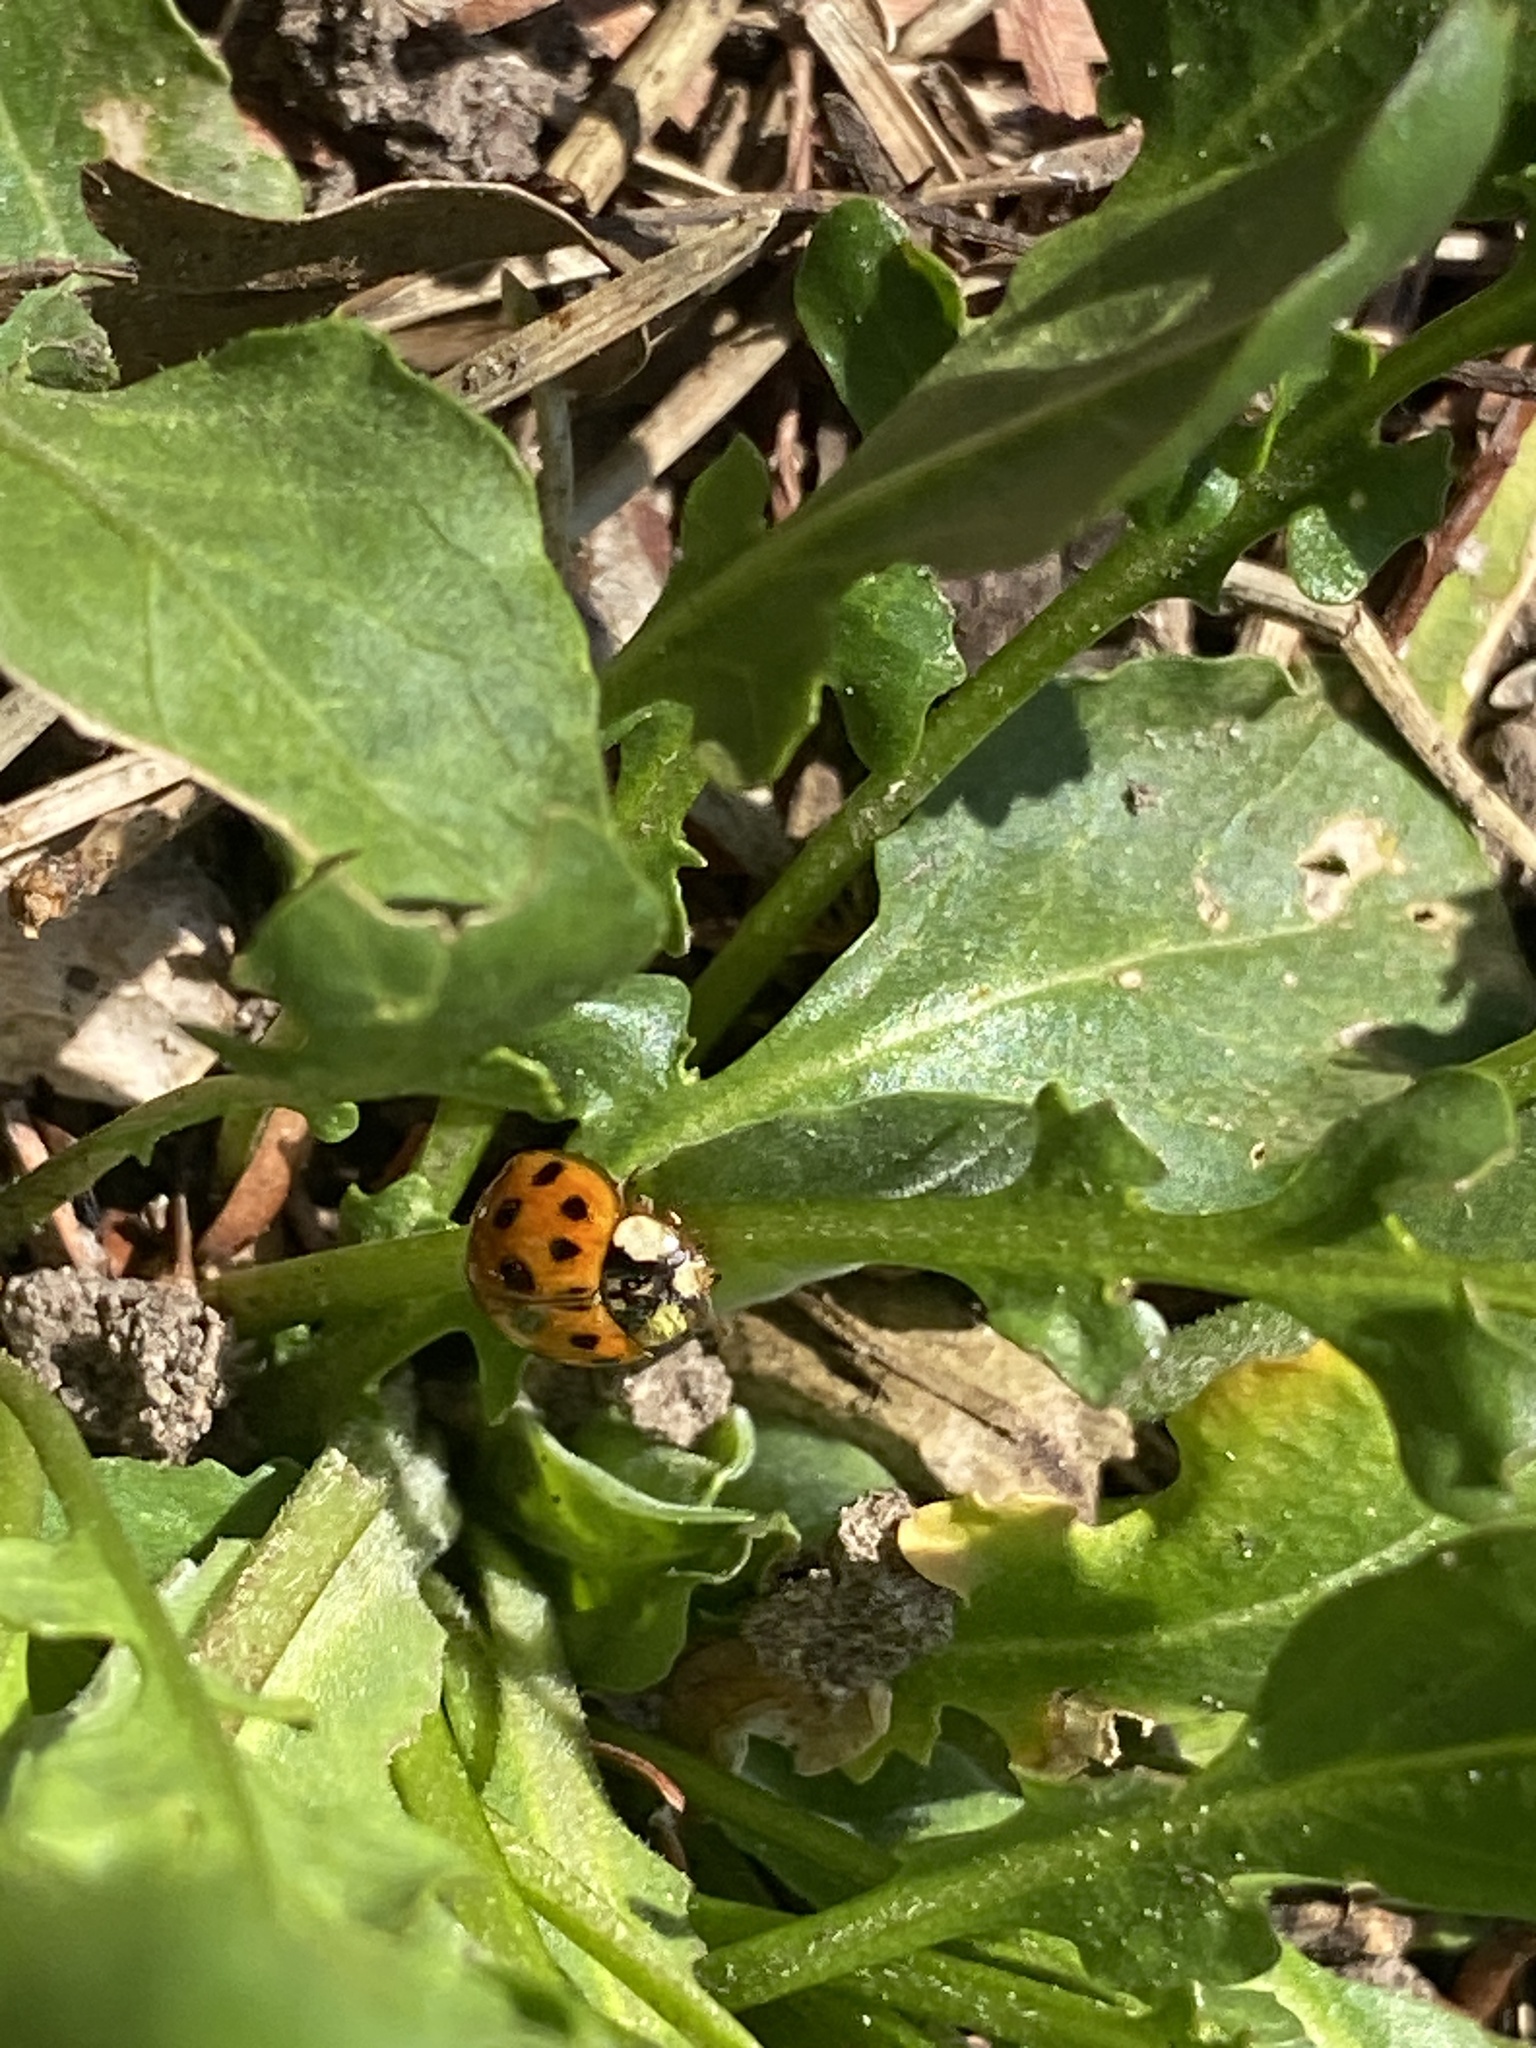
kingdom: Animalia
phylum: Arthropoda
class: Insecta
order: Coleoptera
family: Coccinellidae
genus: Harmonia
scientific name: Harmonia axyridis
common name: Harlequin ladybird
